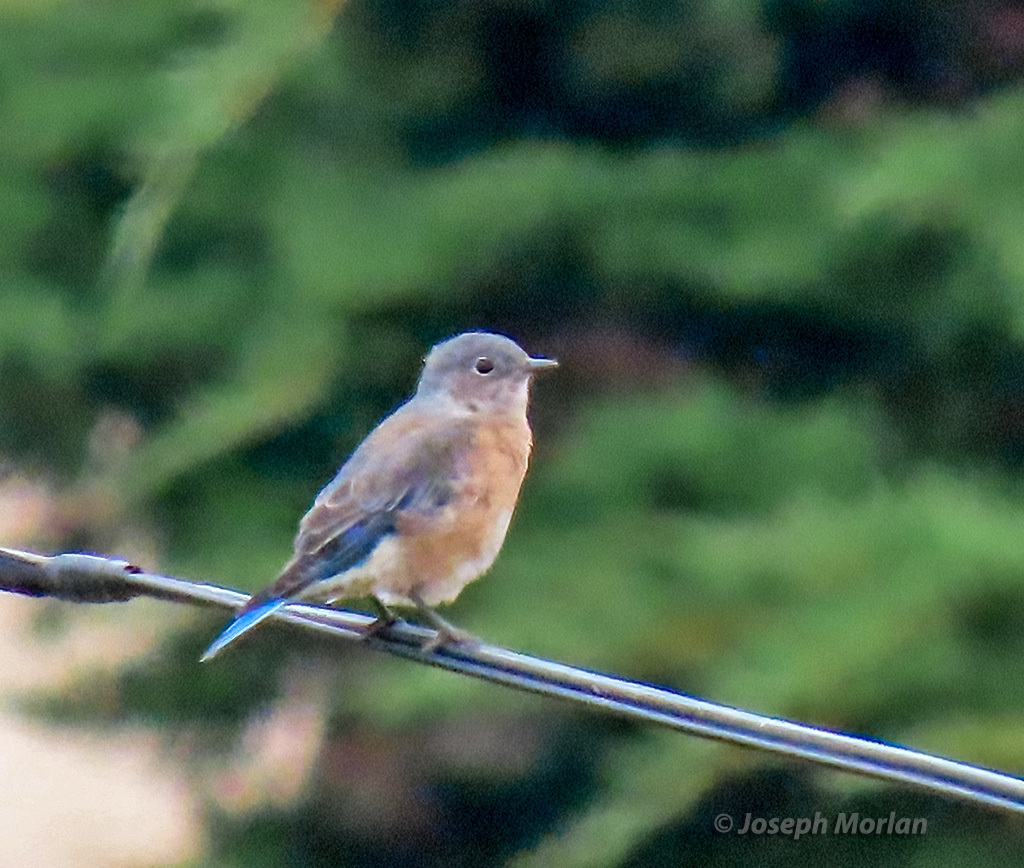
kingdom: Animalia
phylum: Chordata
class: Aves
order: Passeriformes
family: Turdidae
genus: Sialia
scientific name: Sialia mexicana
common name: Western bluebird
